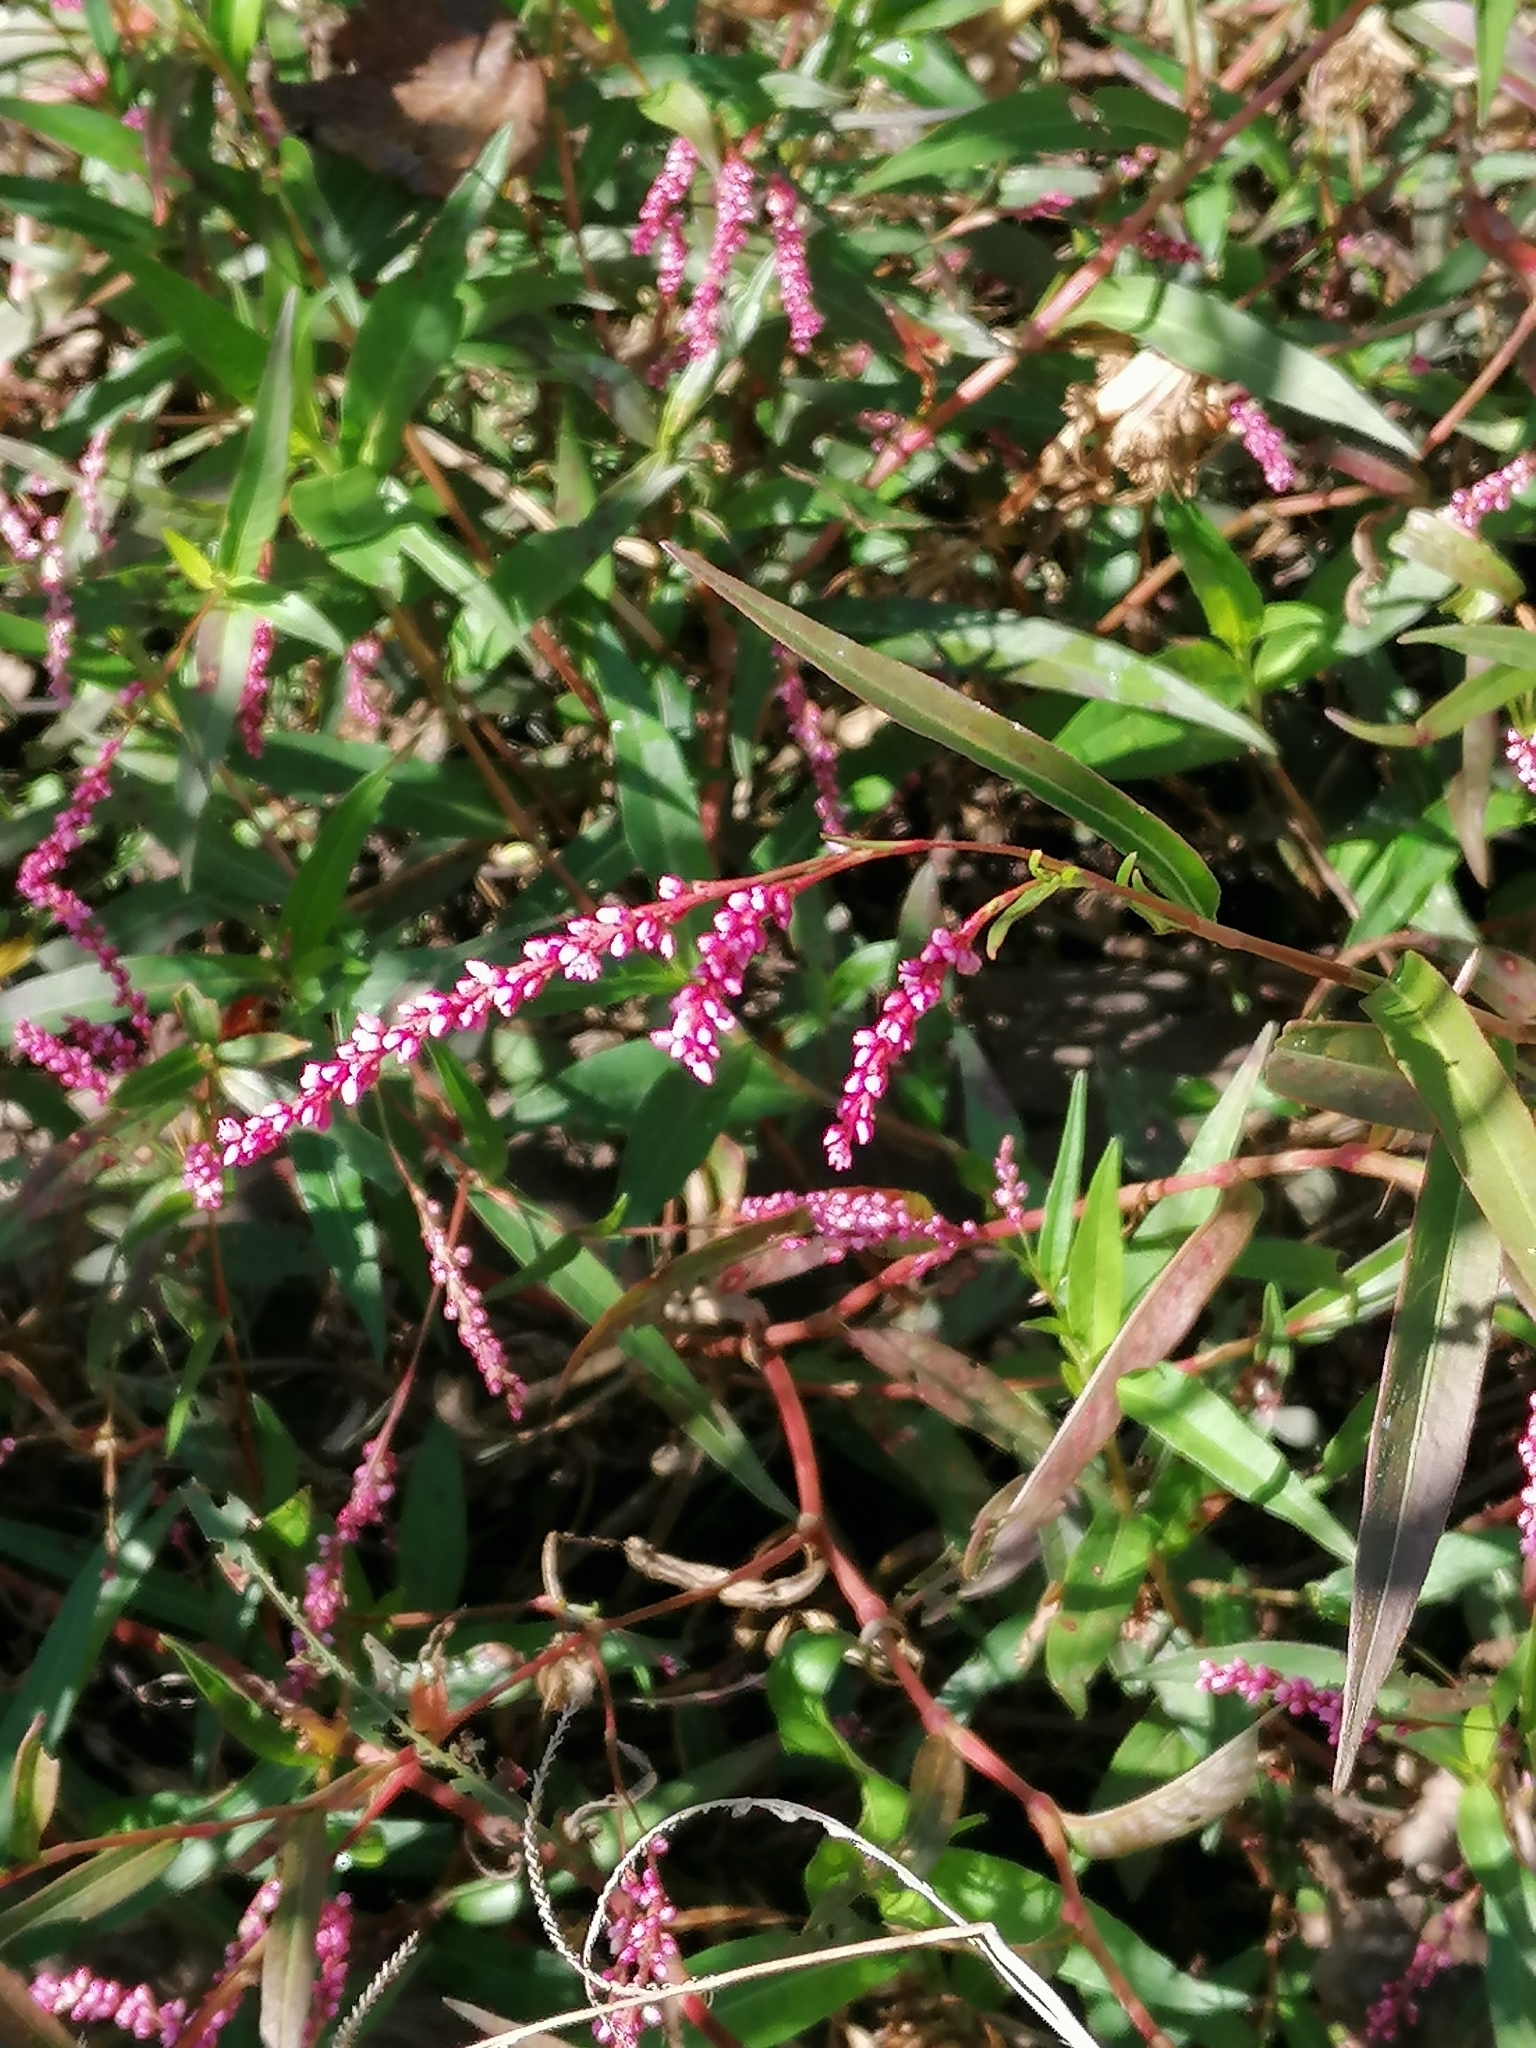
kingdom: Plantae
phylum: Tracheophyta
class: Magnoliopsida
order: Caryophyllales
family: Polygonaceae
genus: Persicaria
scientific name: Persicaria decipiens
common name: Willow-weed
